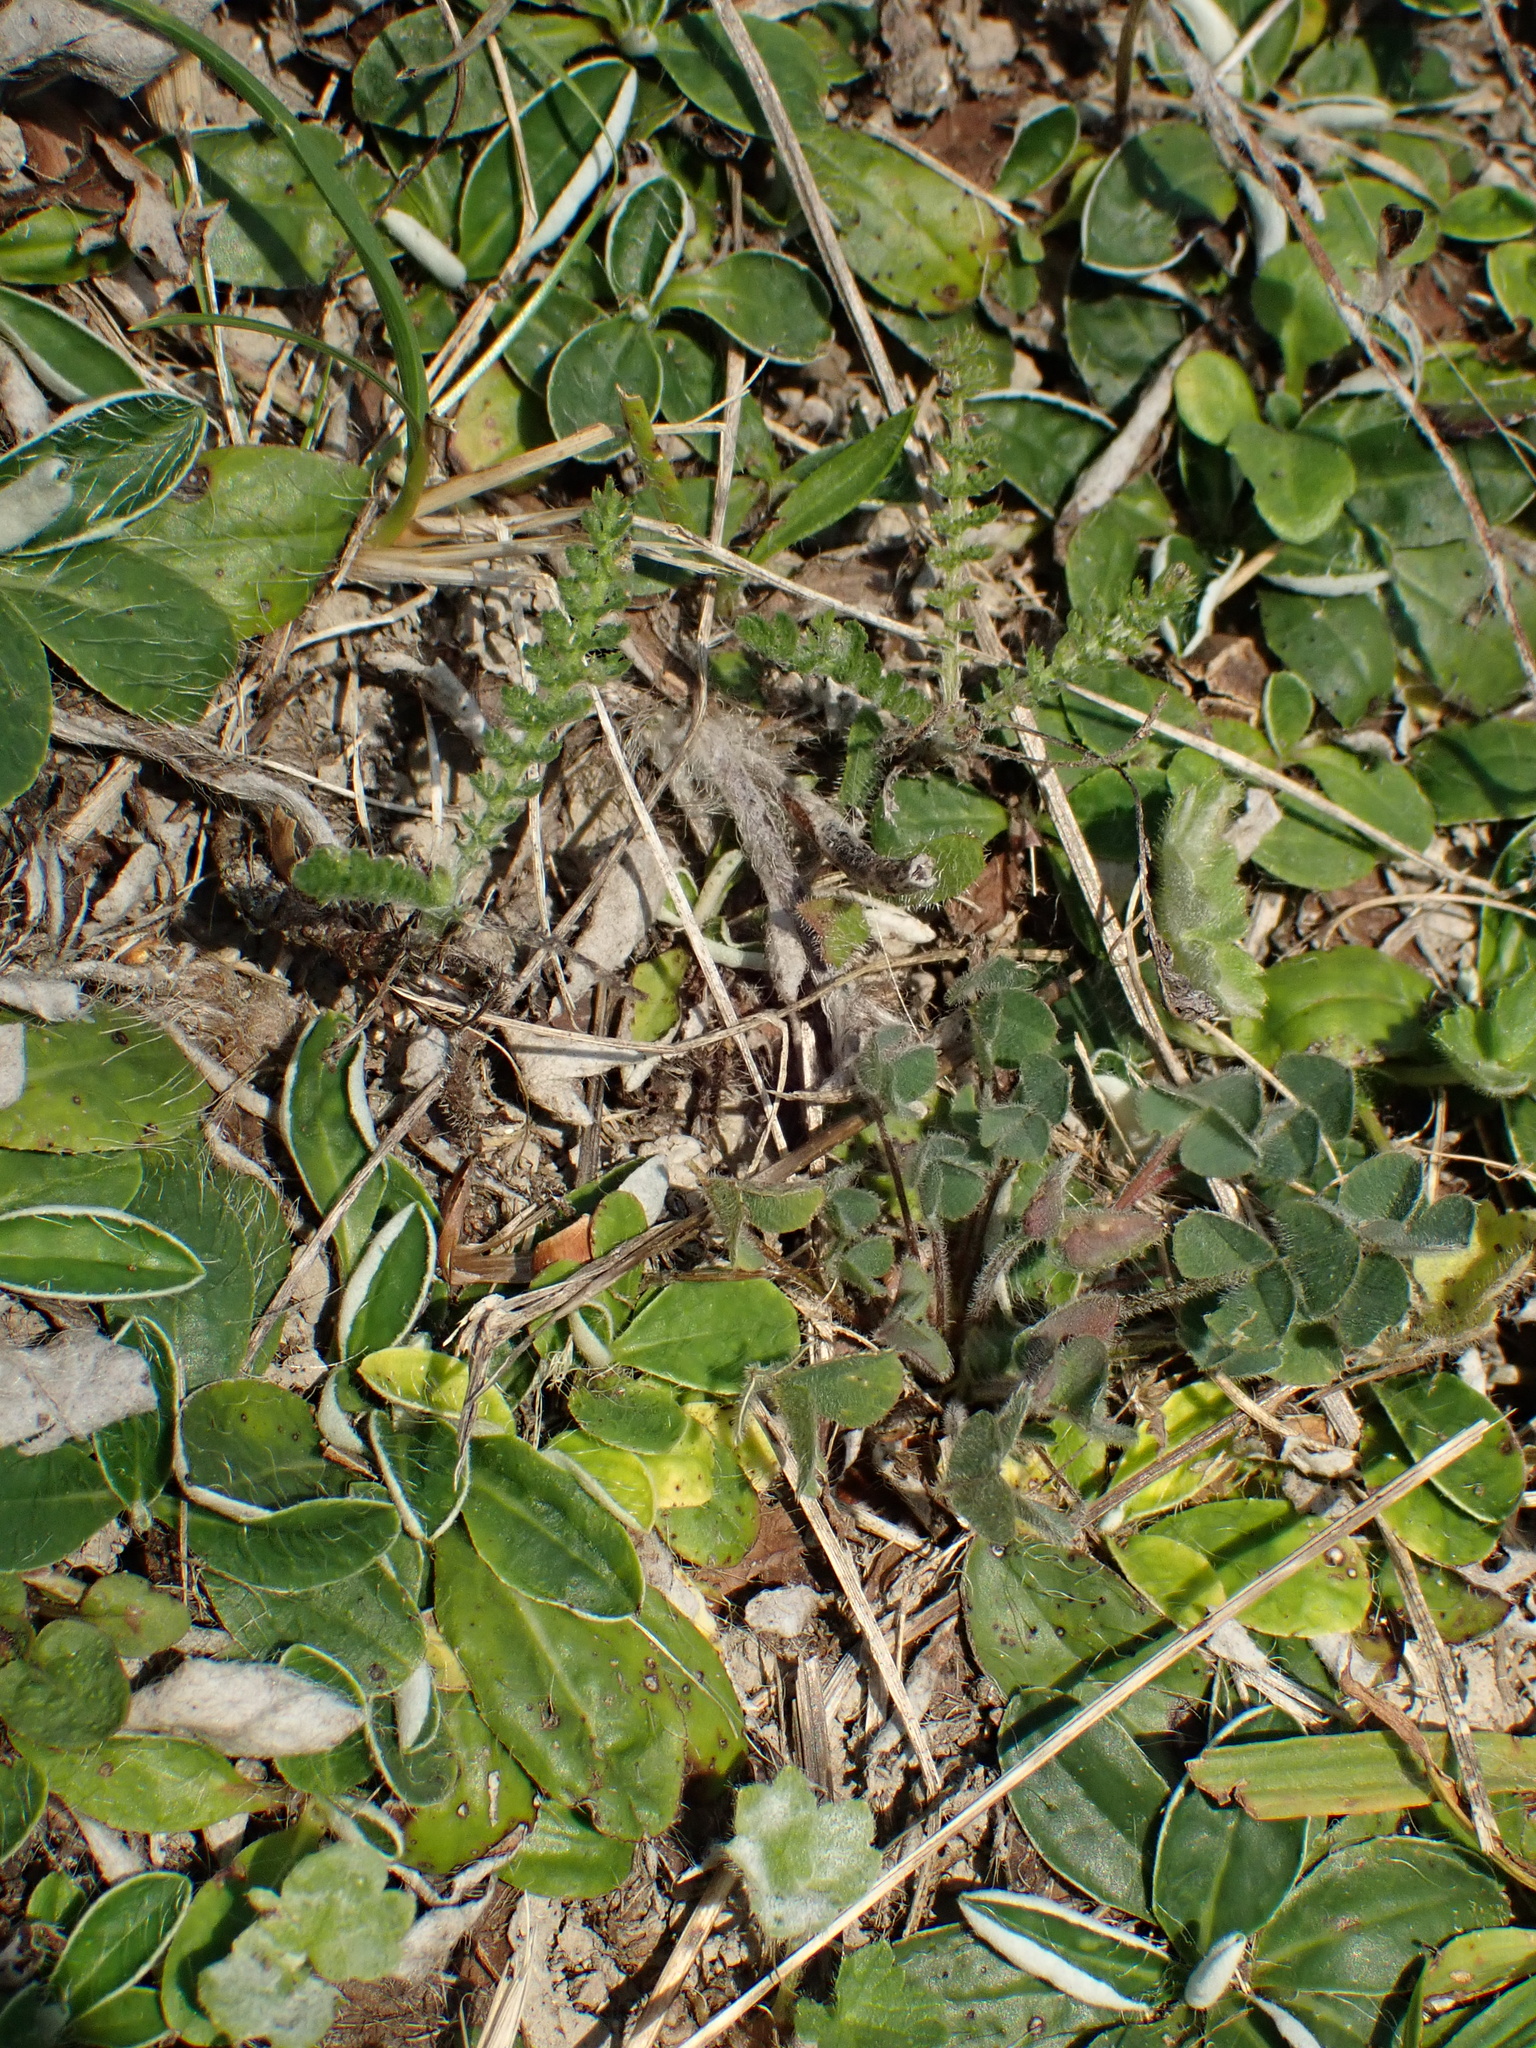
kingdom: Plantae
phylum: Tracheophyta
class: Magnoliopsida
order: Asterales
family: Asteraceae
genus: Pilosella
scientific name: Pilosella officinarum
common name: Mouse-ear hawkweed
